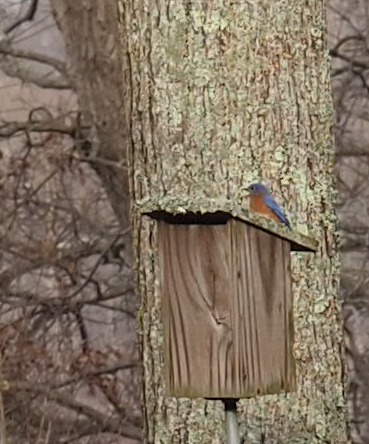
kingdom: Animalia
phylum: Chordata
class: Aves
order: Passeriformes
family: Turdidae
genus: Sialia
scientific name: Sialia sialis
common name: Eastern bluebird
